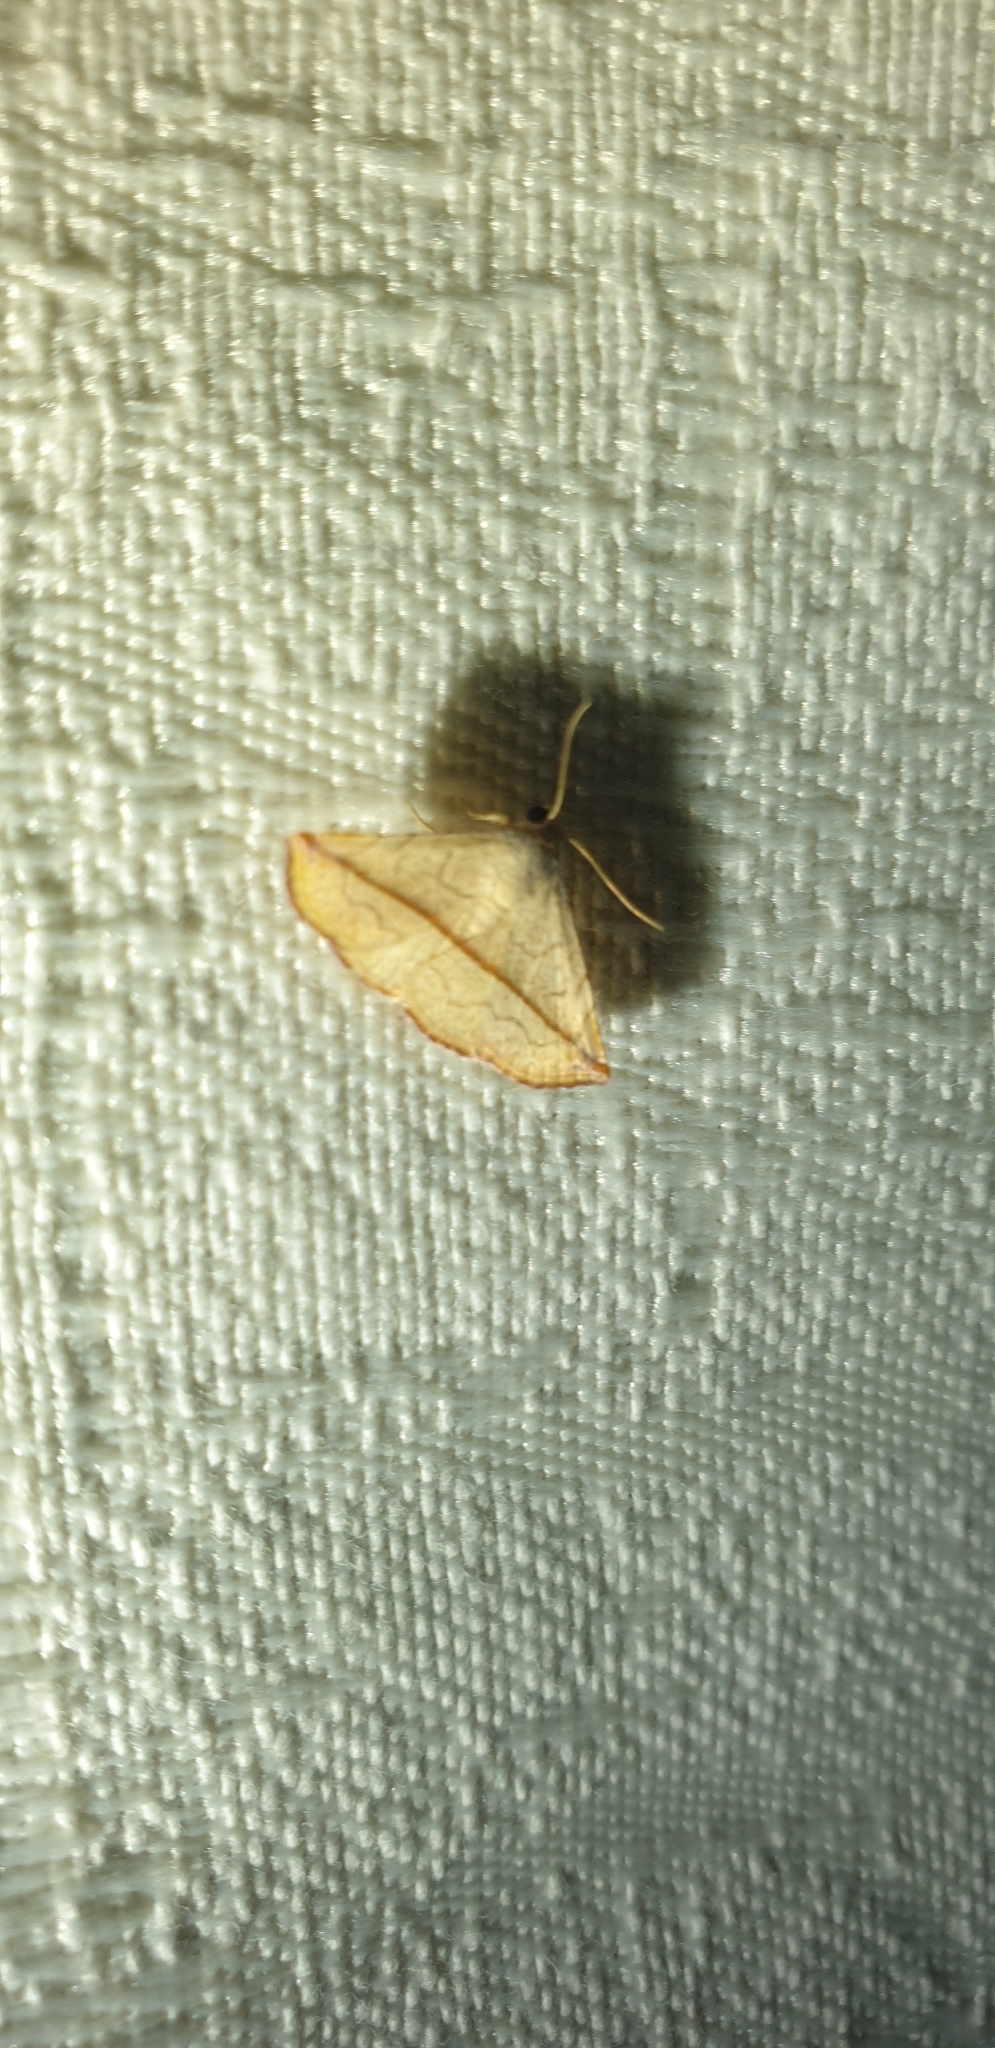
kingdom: Animalia
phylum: Arthropoda
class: Insecta
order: Lepidoptera
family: Noctuidae
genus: Eublemma
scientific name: Eublemma perversicolor
